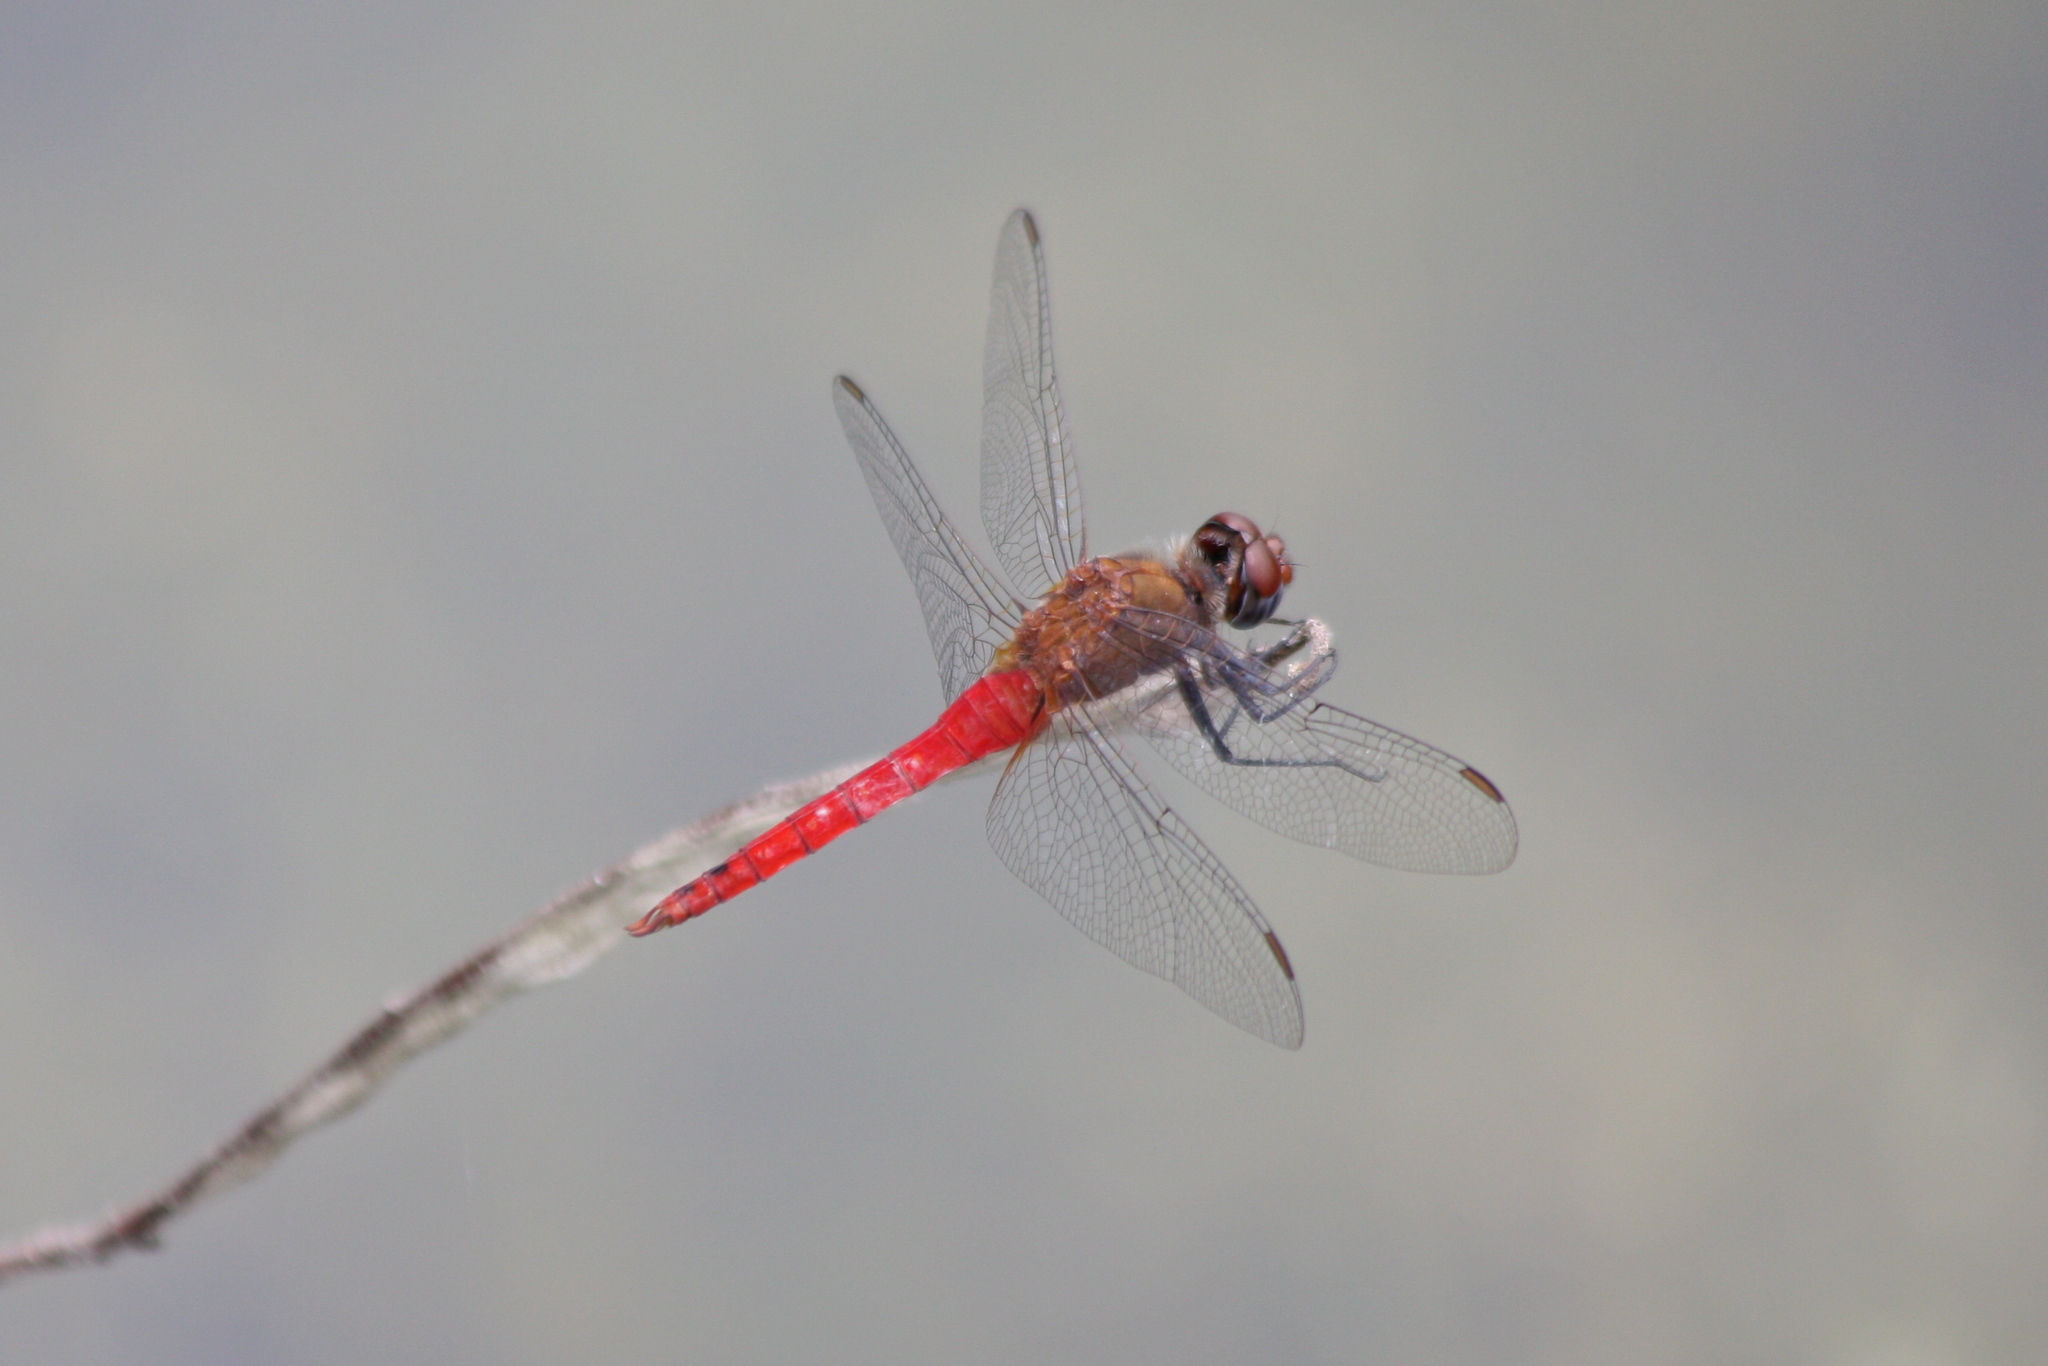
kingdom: Animalia
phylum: Arthropoda
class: Insecta
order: Odonata
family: Libellulidae
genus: Brachymesia
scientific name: Brachymesia furcata
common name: Red-taled pennant
